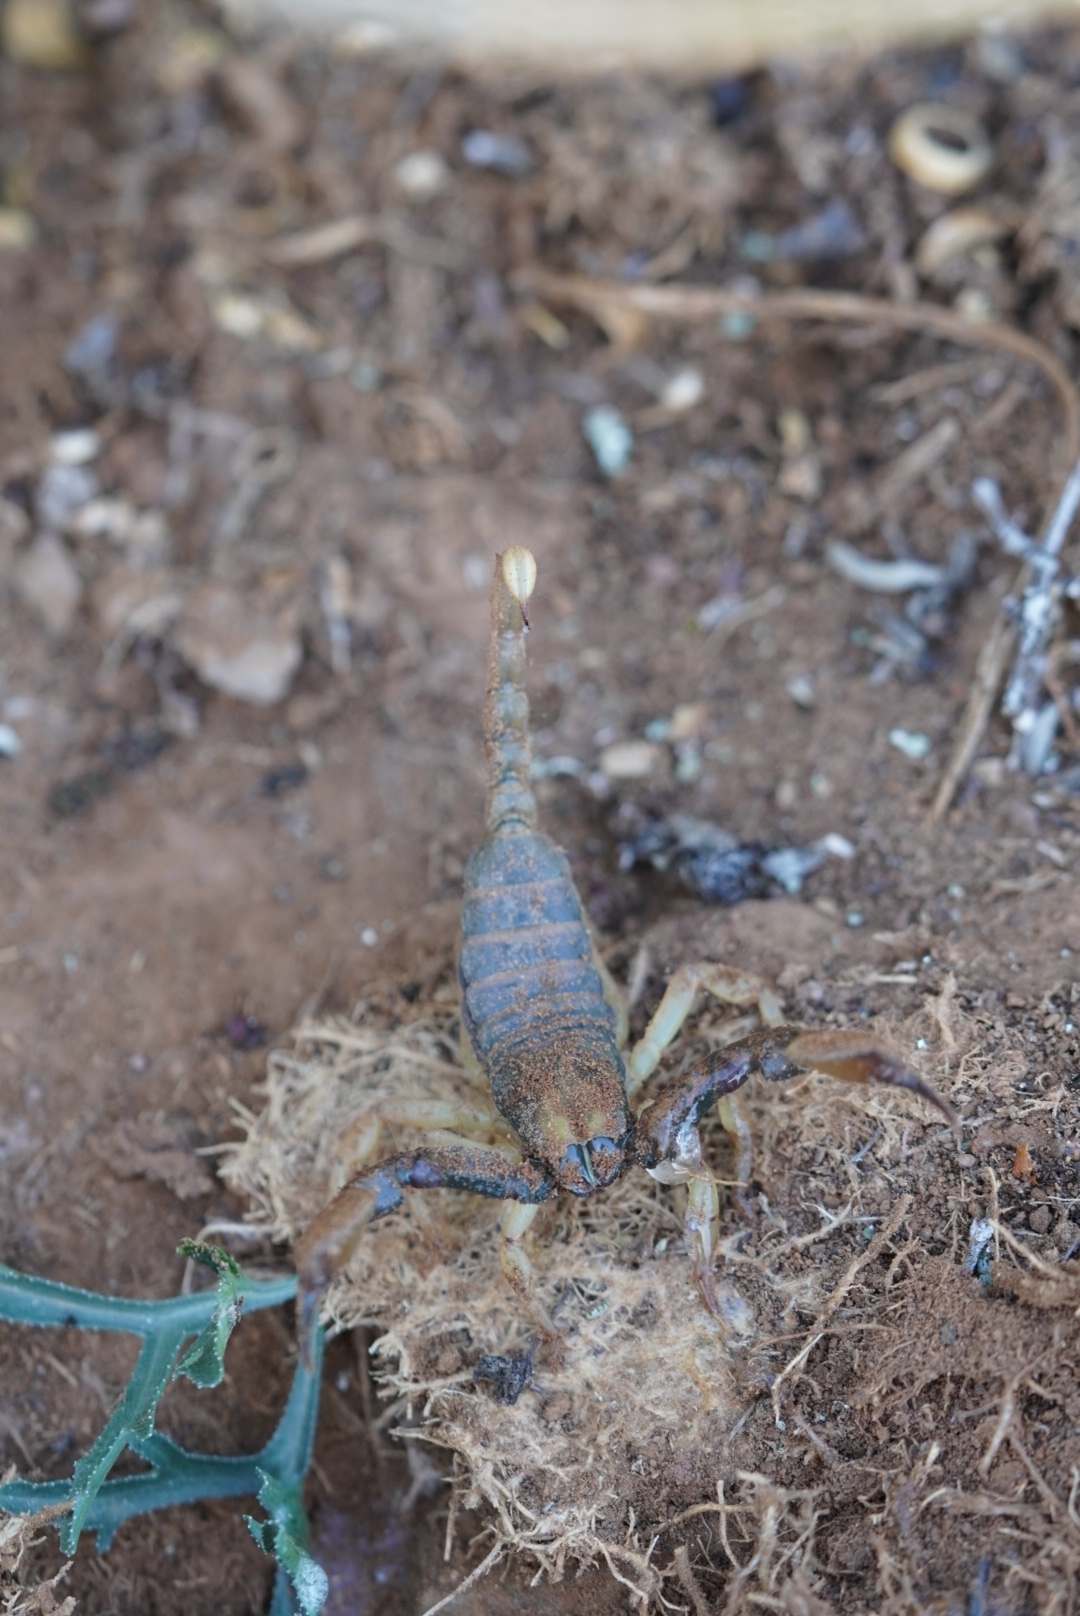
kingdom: Animalia
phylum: Arthropoda
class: Arachnida
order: Scorpiones
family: Scorpionidae
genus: Opistophthalmus
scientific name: Opistophthalmus karrooensis
